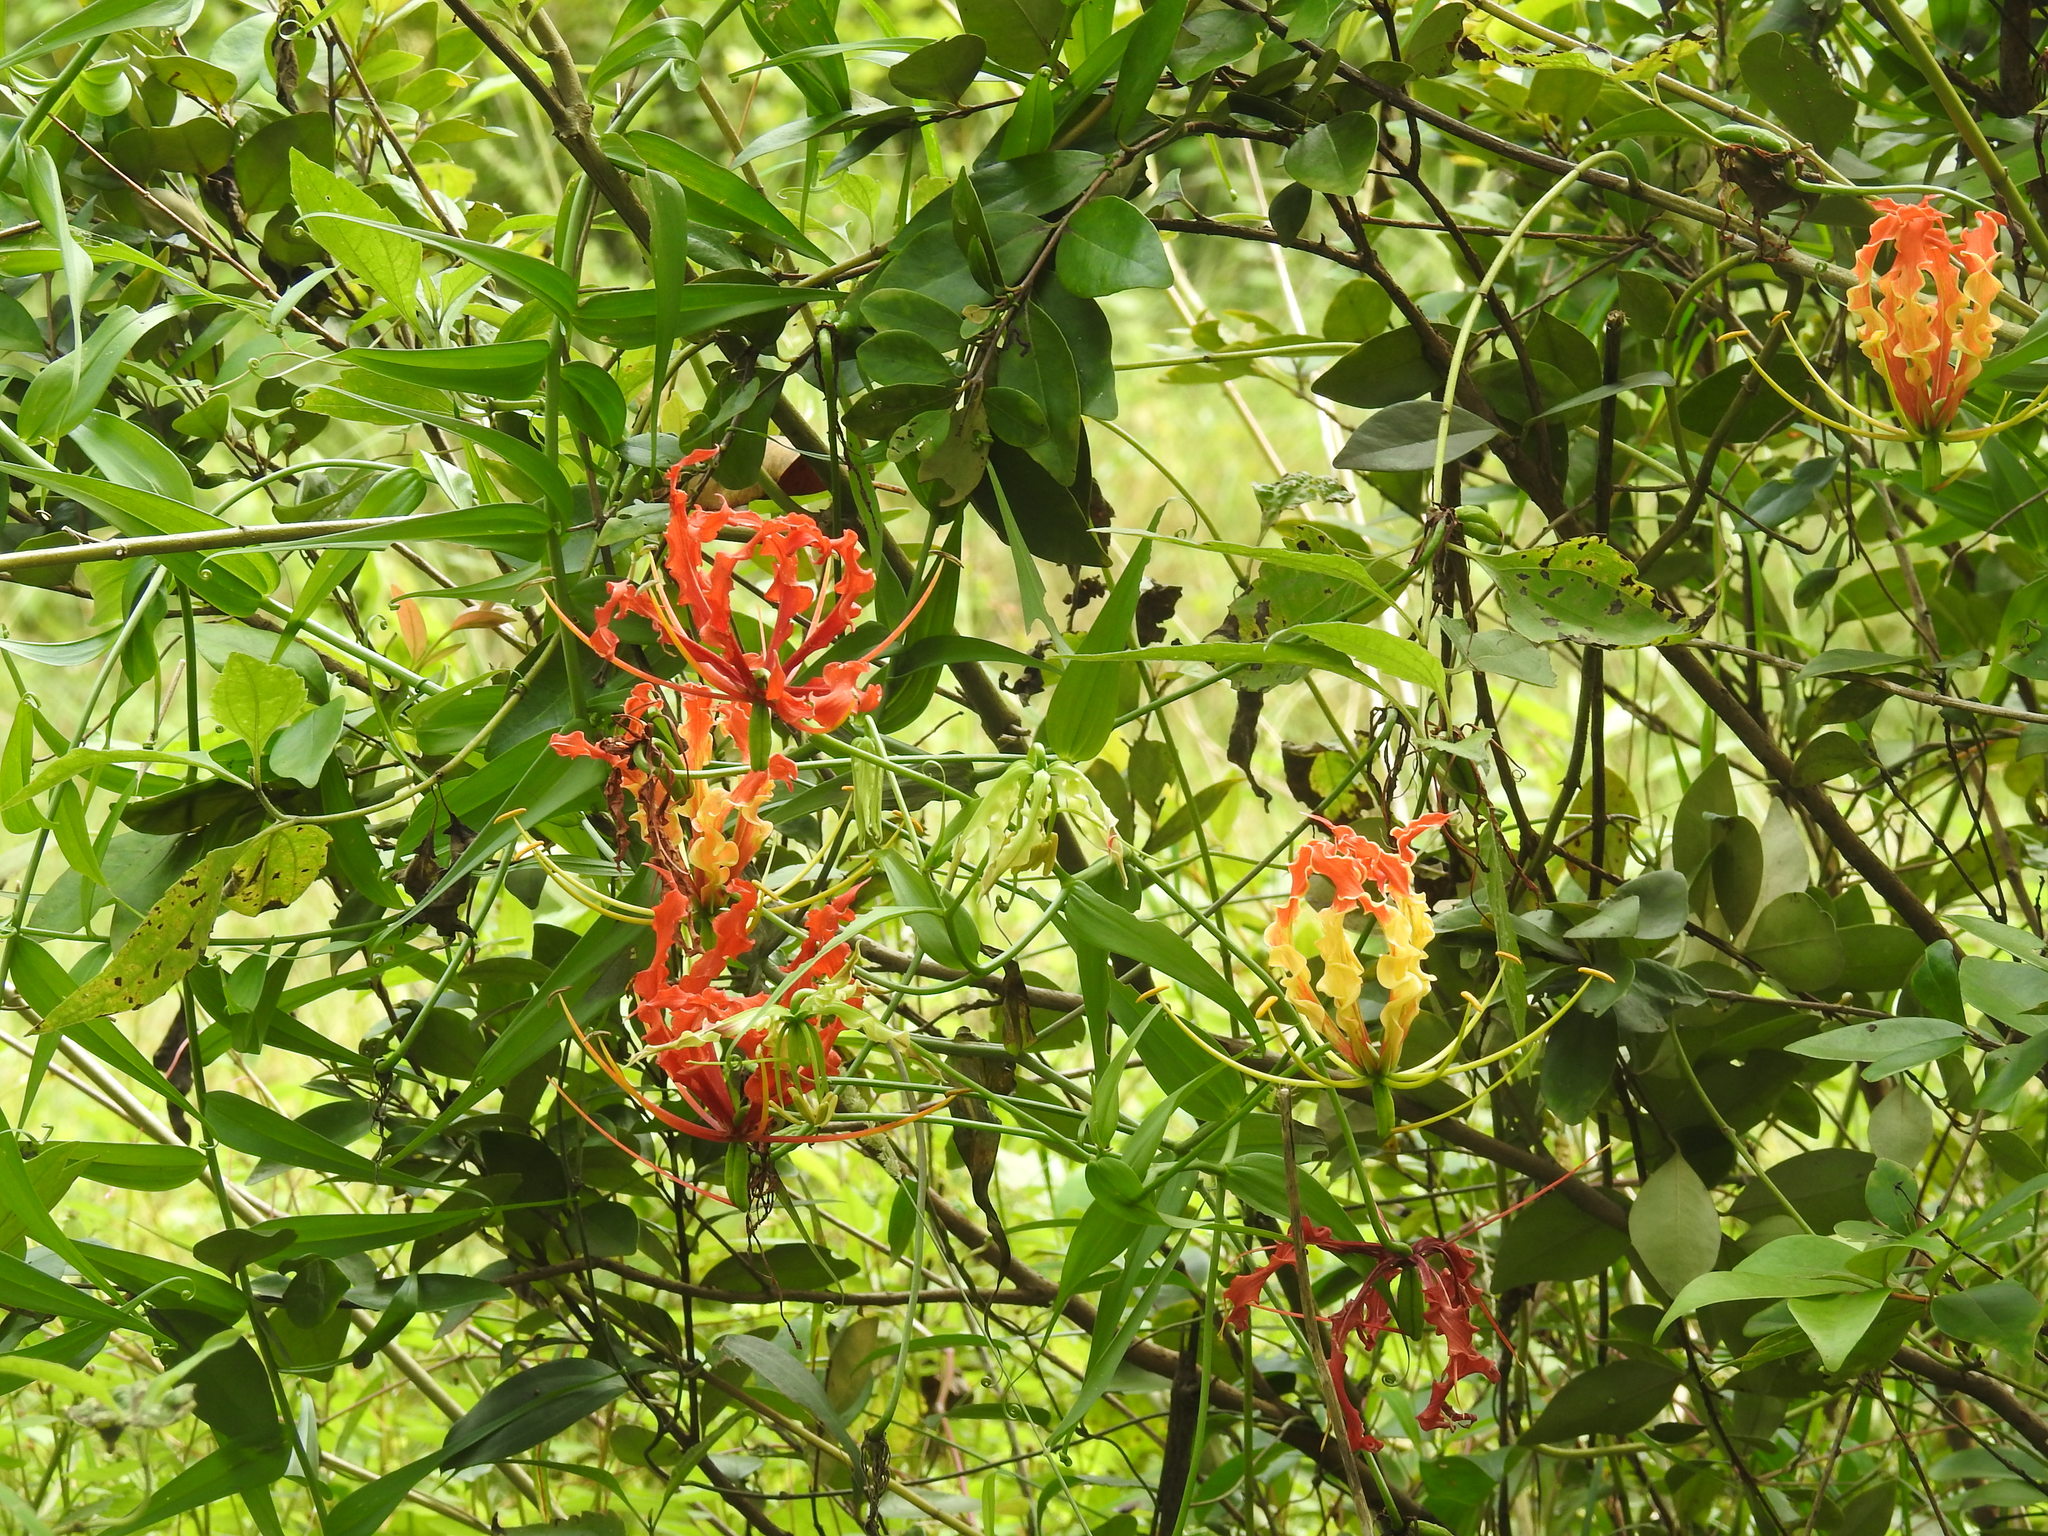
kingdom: Plantae
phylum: Tracheophyta
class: Liliopsida
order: Liliales
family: Colchicaceae
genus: Gloriosa
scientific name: Gloriosa superba
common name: Flame lily
